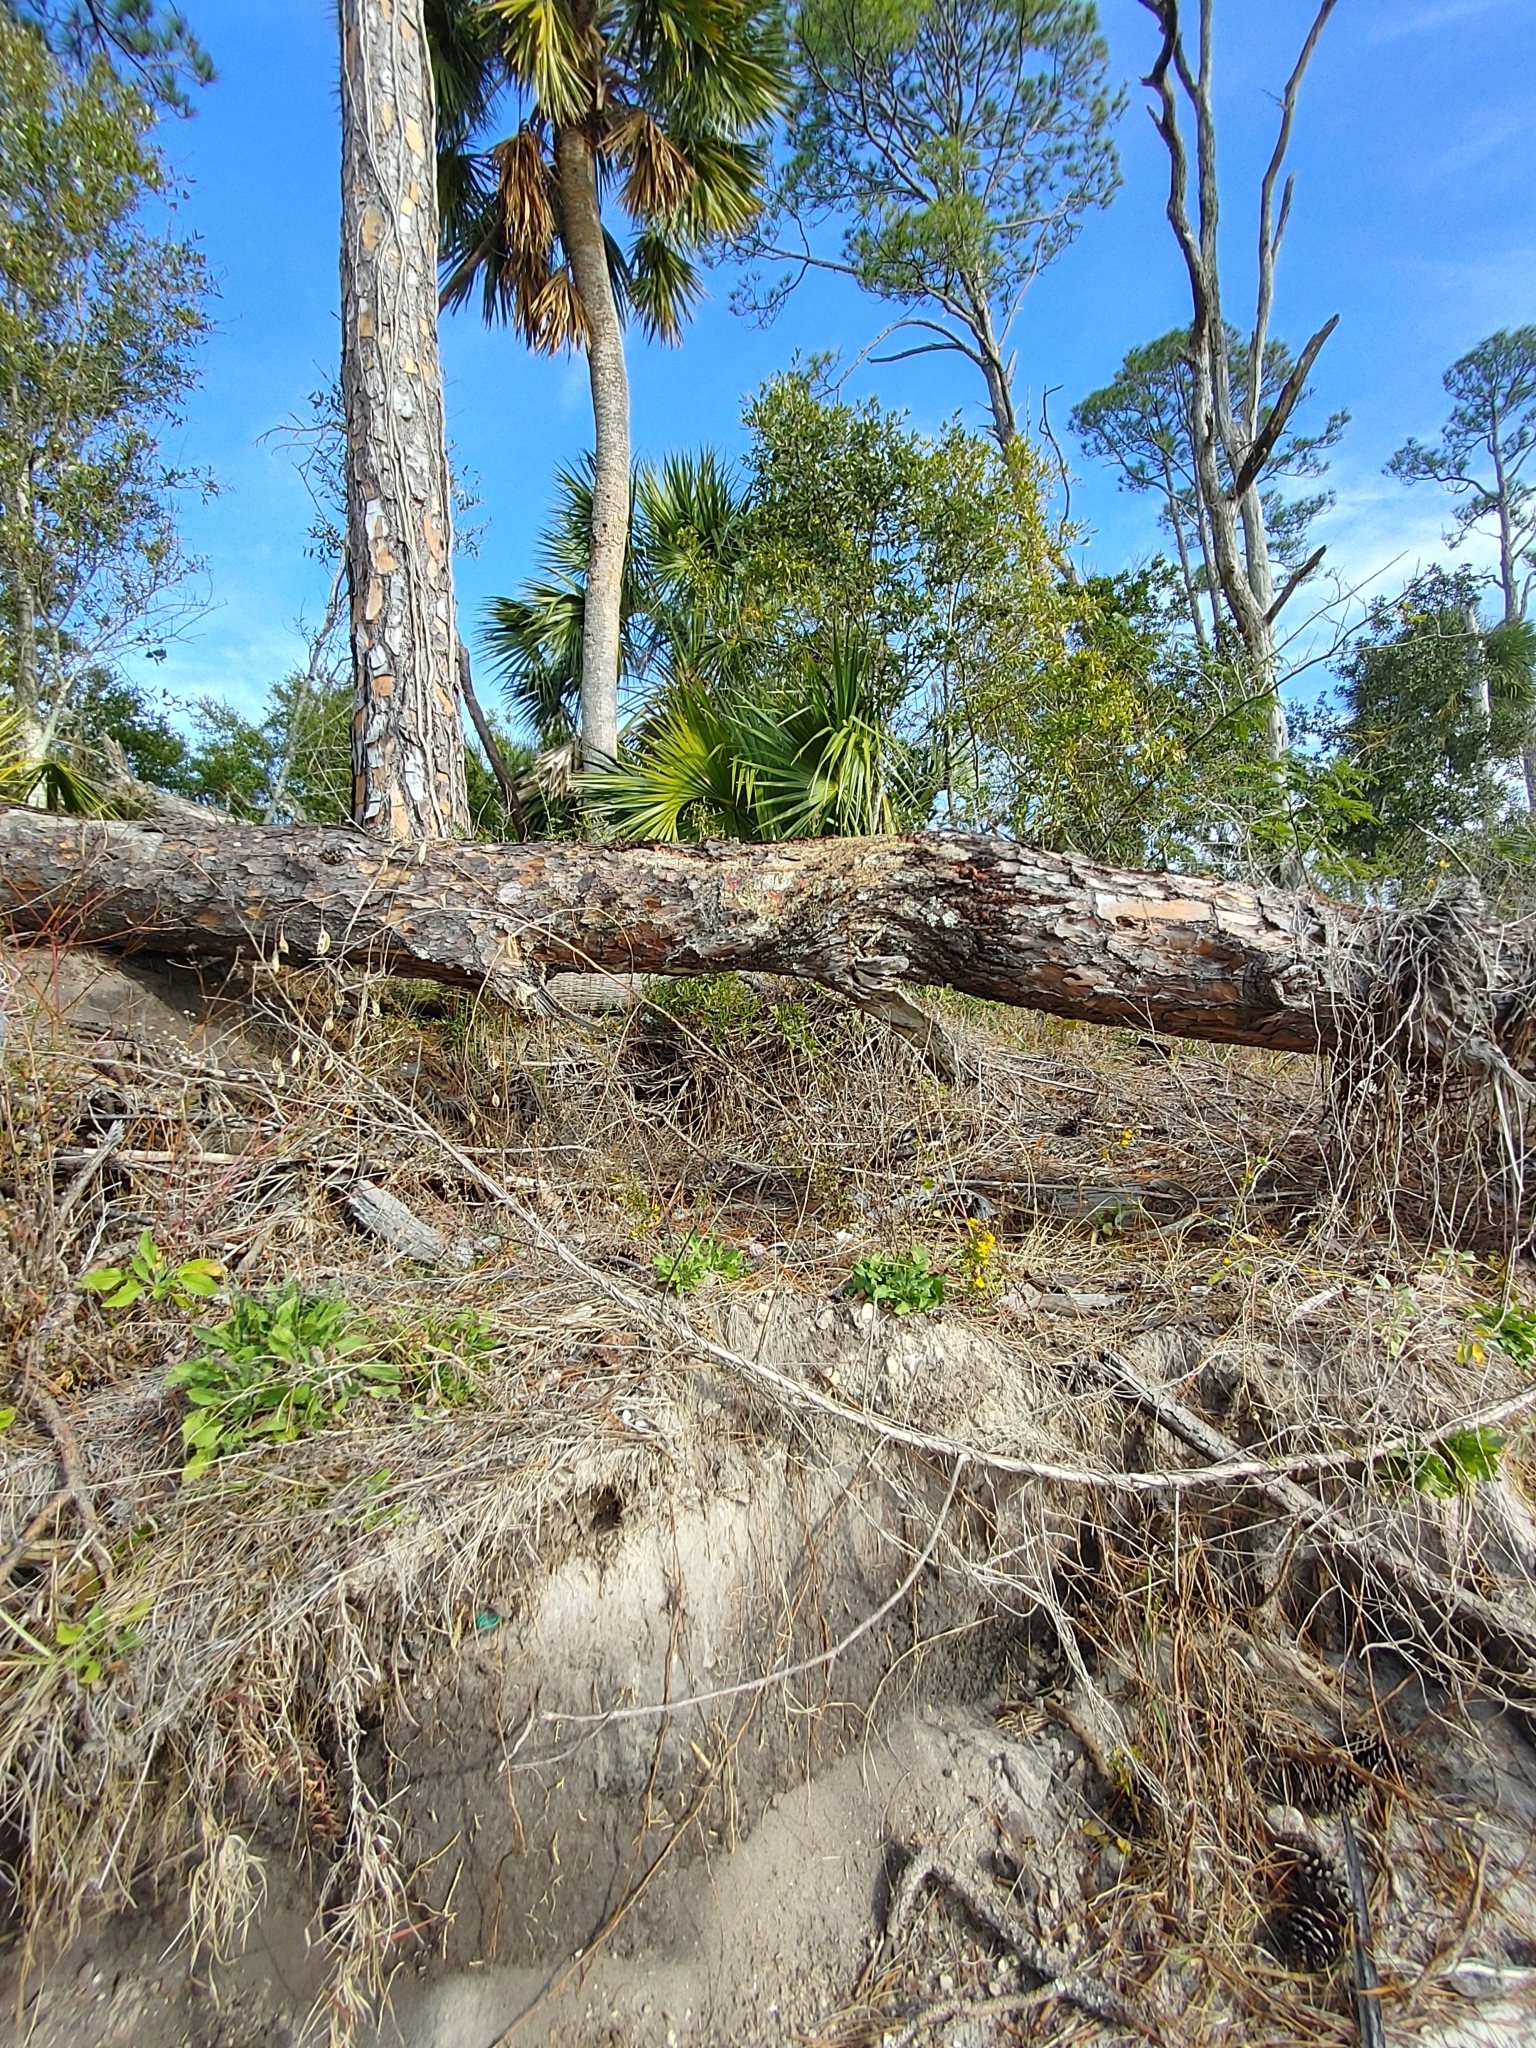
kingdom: Plantae
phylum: Tracheophyta
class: Magnoliopsida
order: Asterales
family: Asteraceae
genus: Heterotheca
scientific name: Heterotheca subaxillaris
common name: Camphorweed
